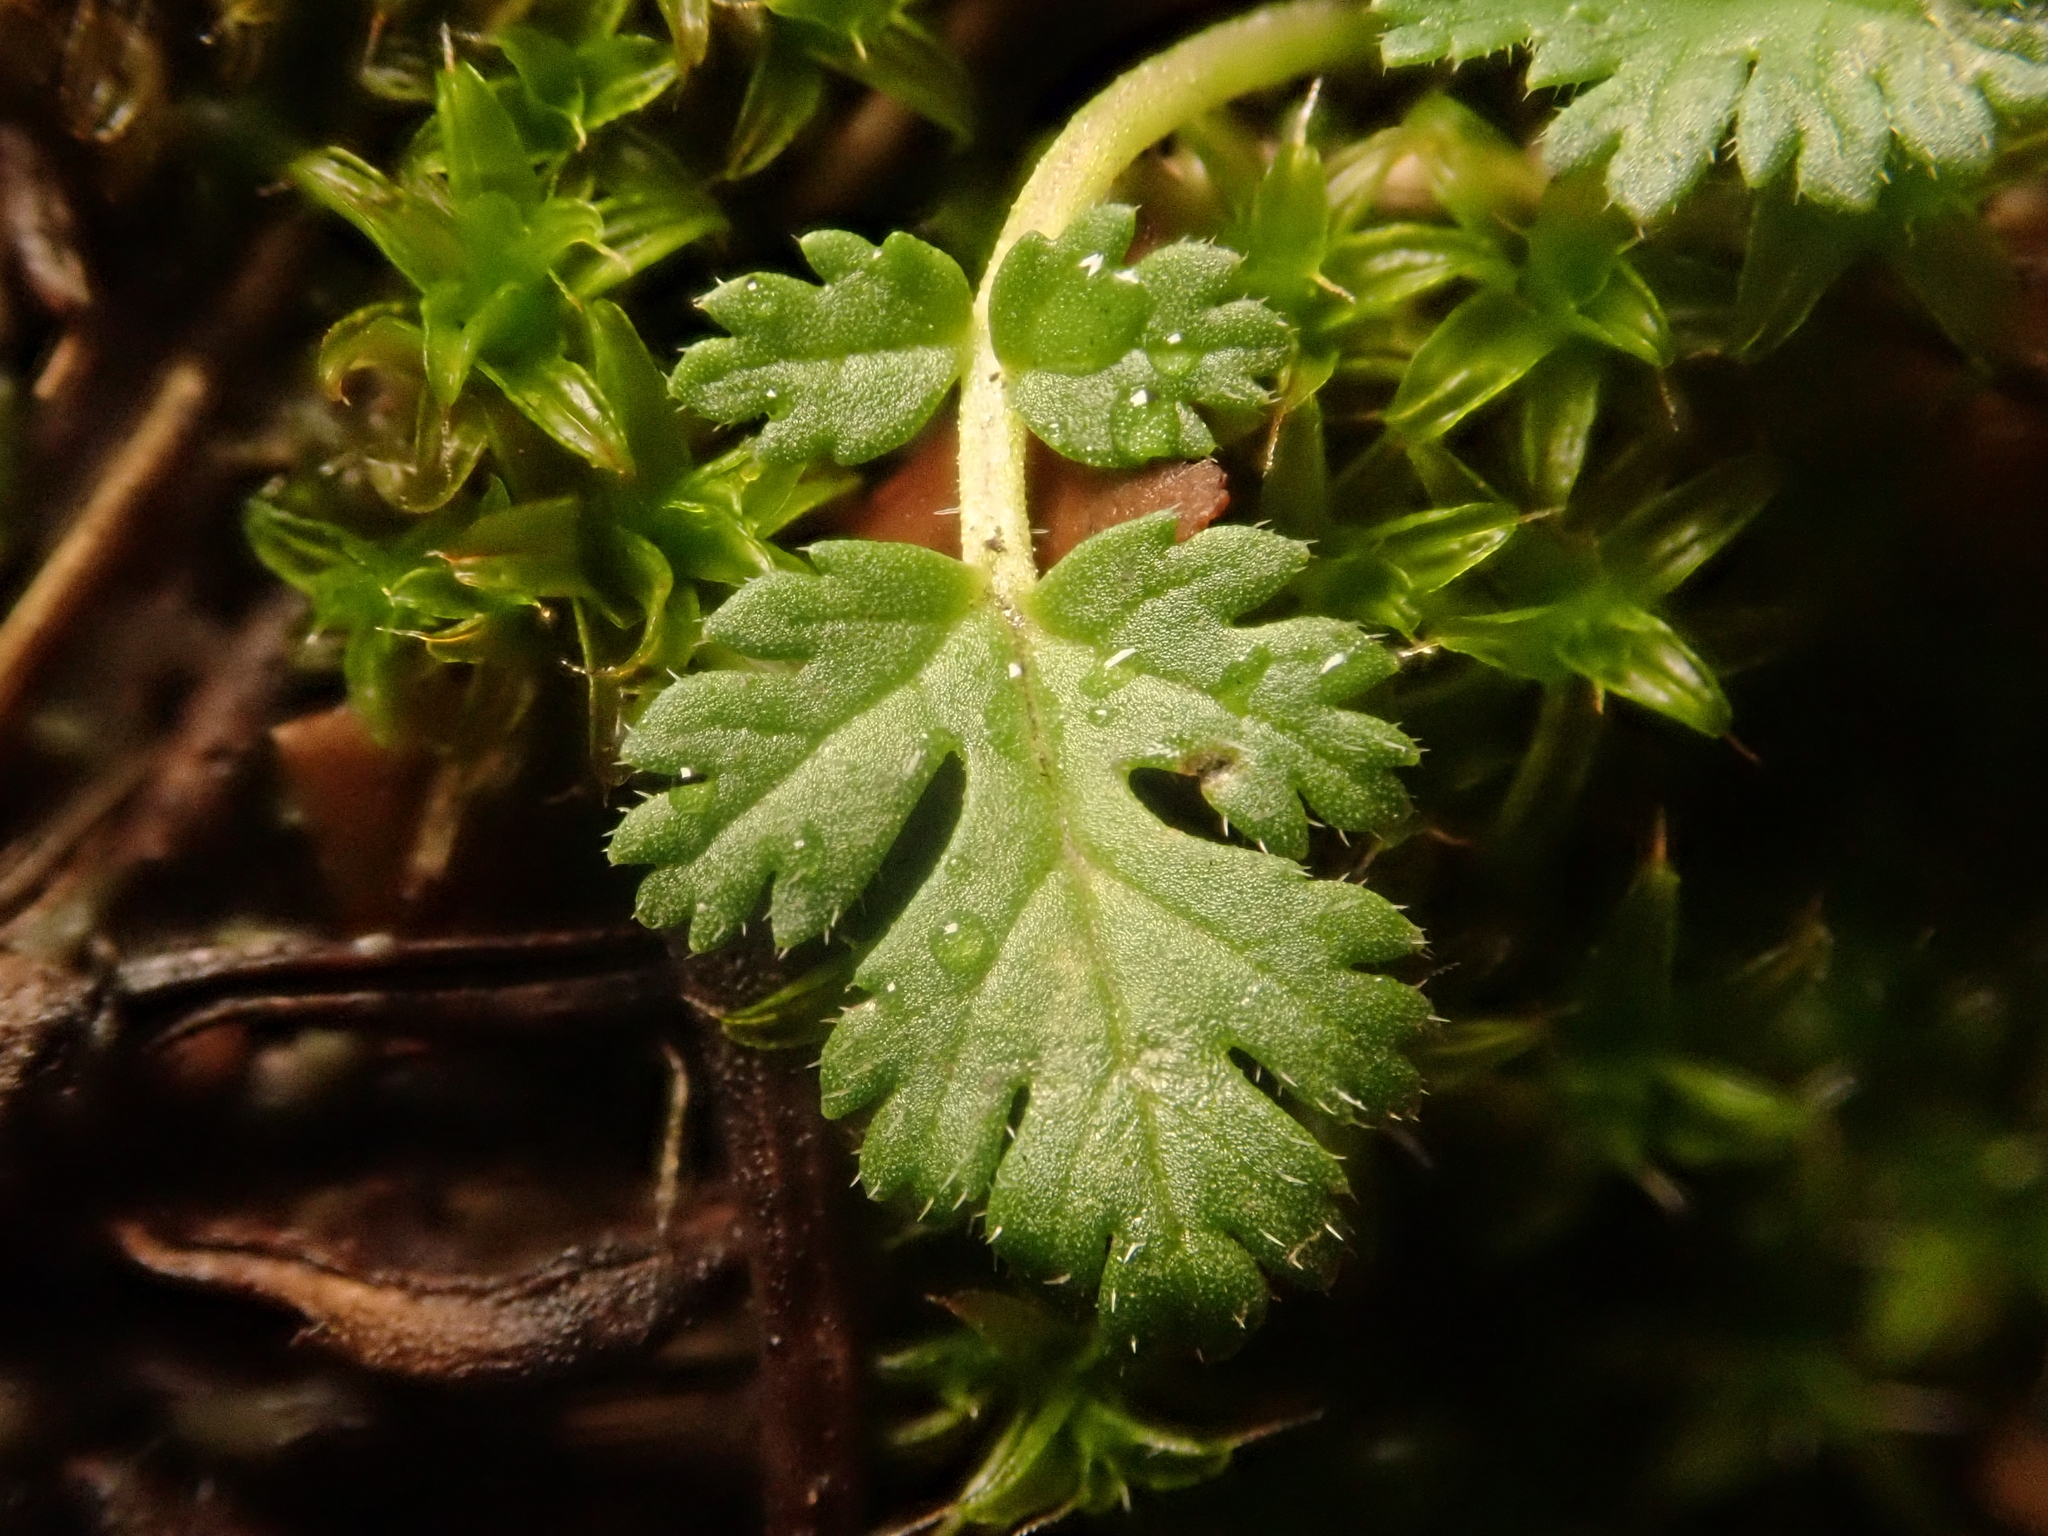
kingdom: Plantae
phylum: Tracheophyta
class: Magnoliopsida
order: Geraniales
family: Geraniaceae
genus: Erodium
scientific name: Erodium cicutarium
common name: Common stork's-bill
